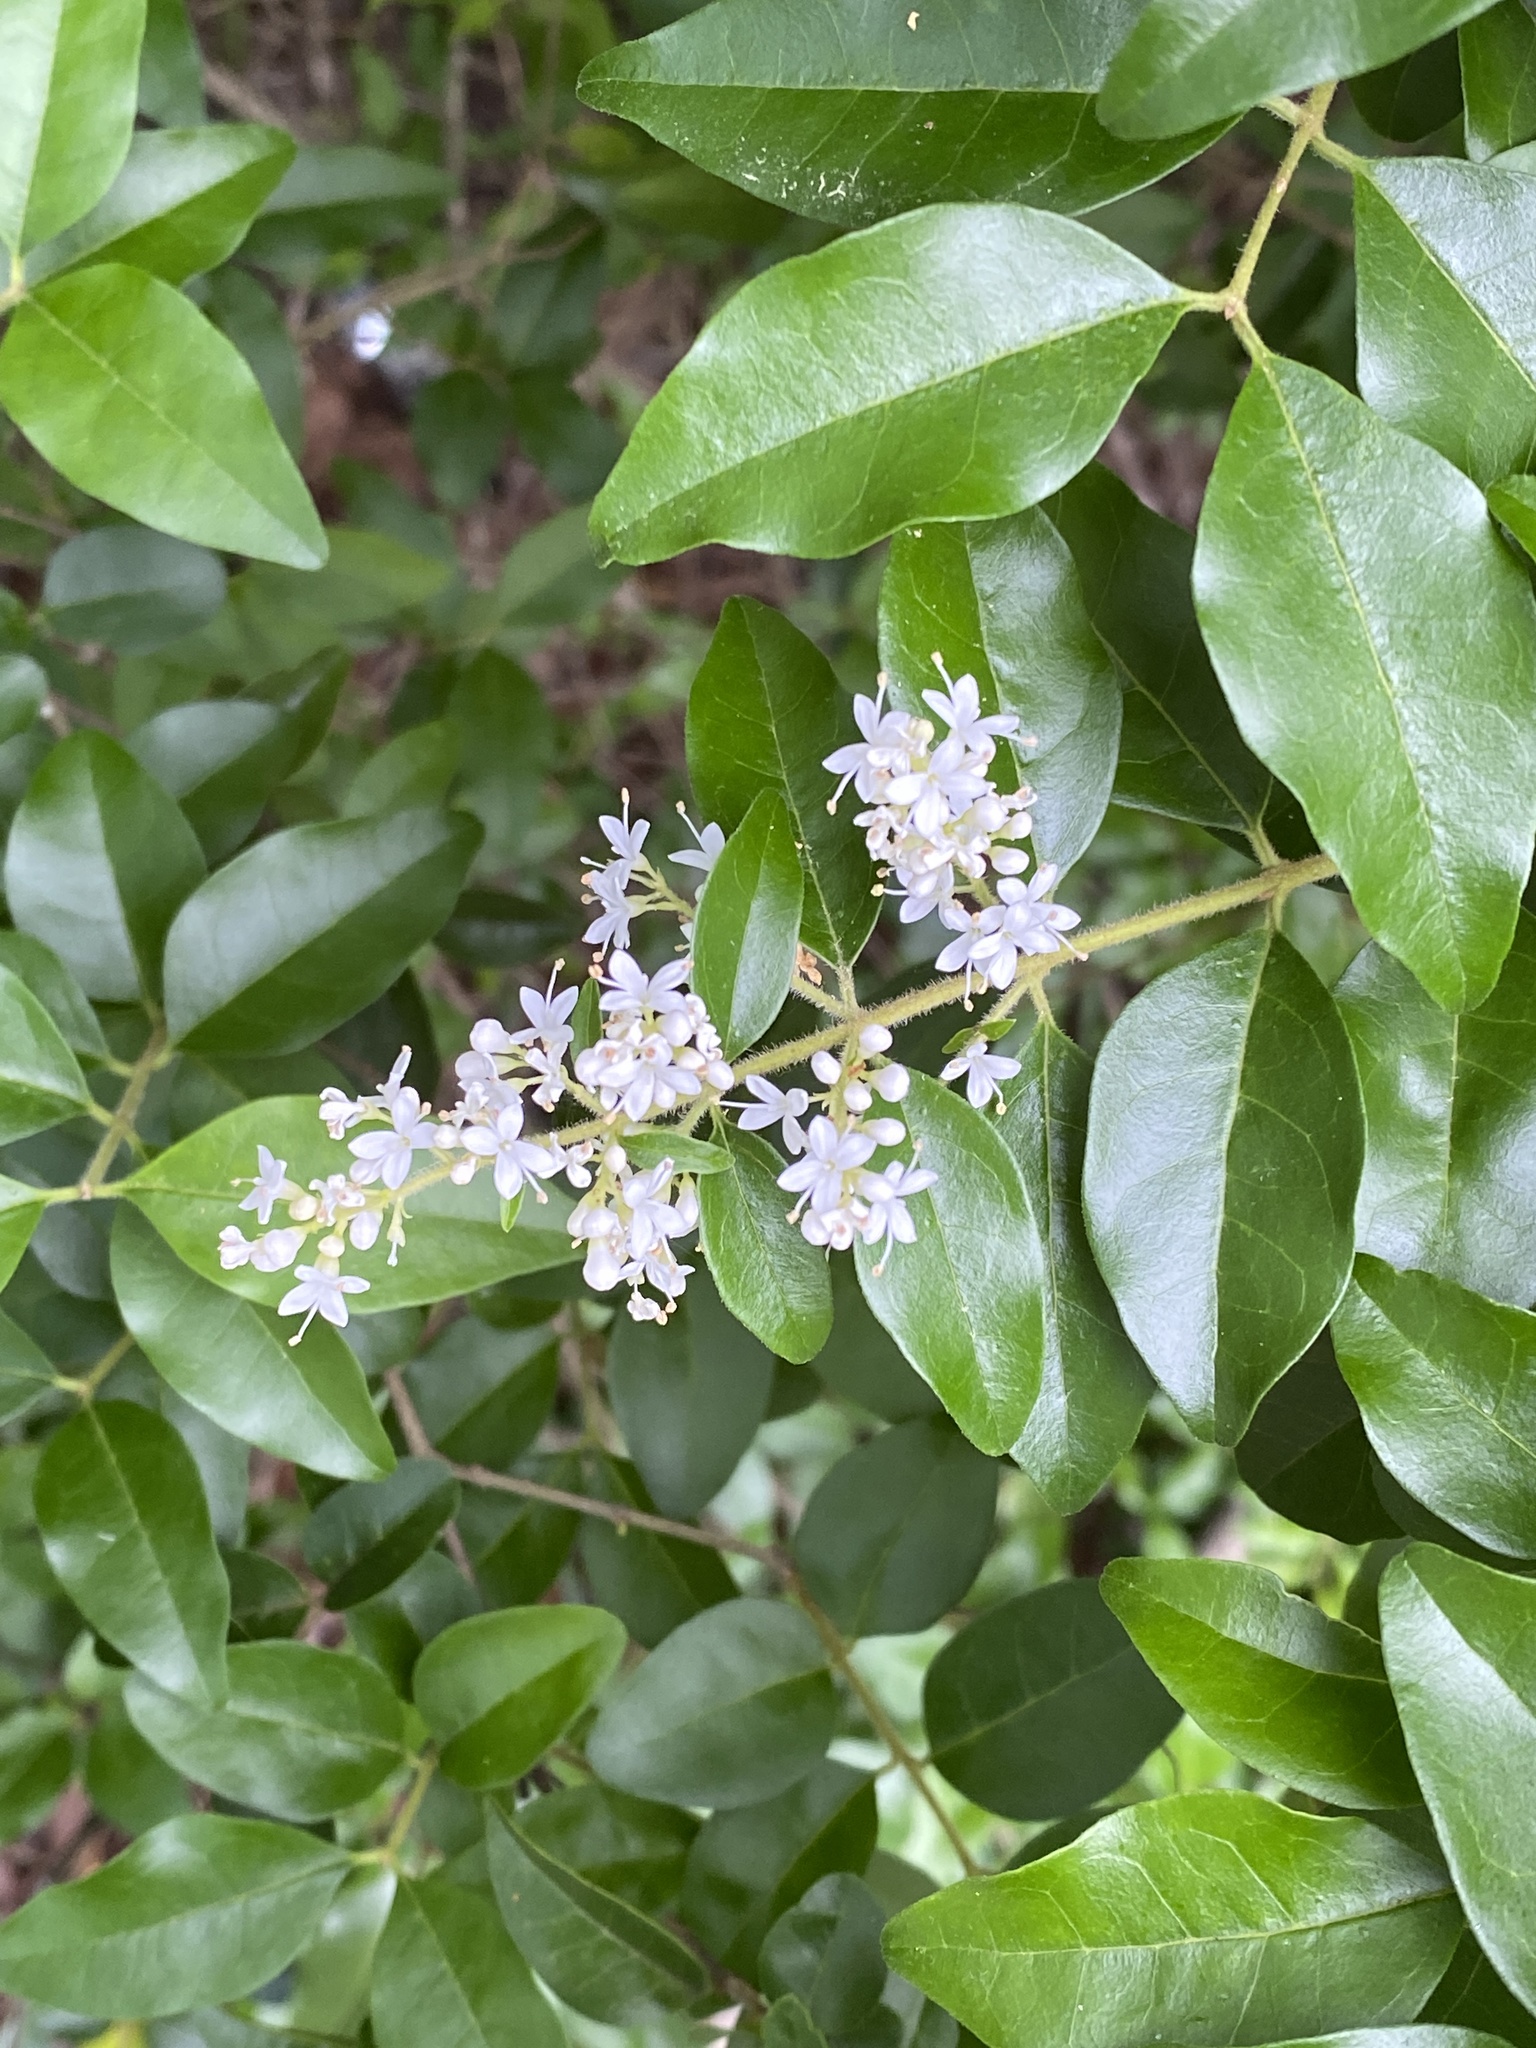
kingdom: Plantae
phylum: Tracheophyta
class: Magnoliopsida
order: Lamiales
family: Oleaceae
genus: Ligustrum
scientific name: Ligustrum sinense
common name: Chinese privet
